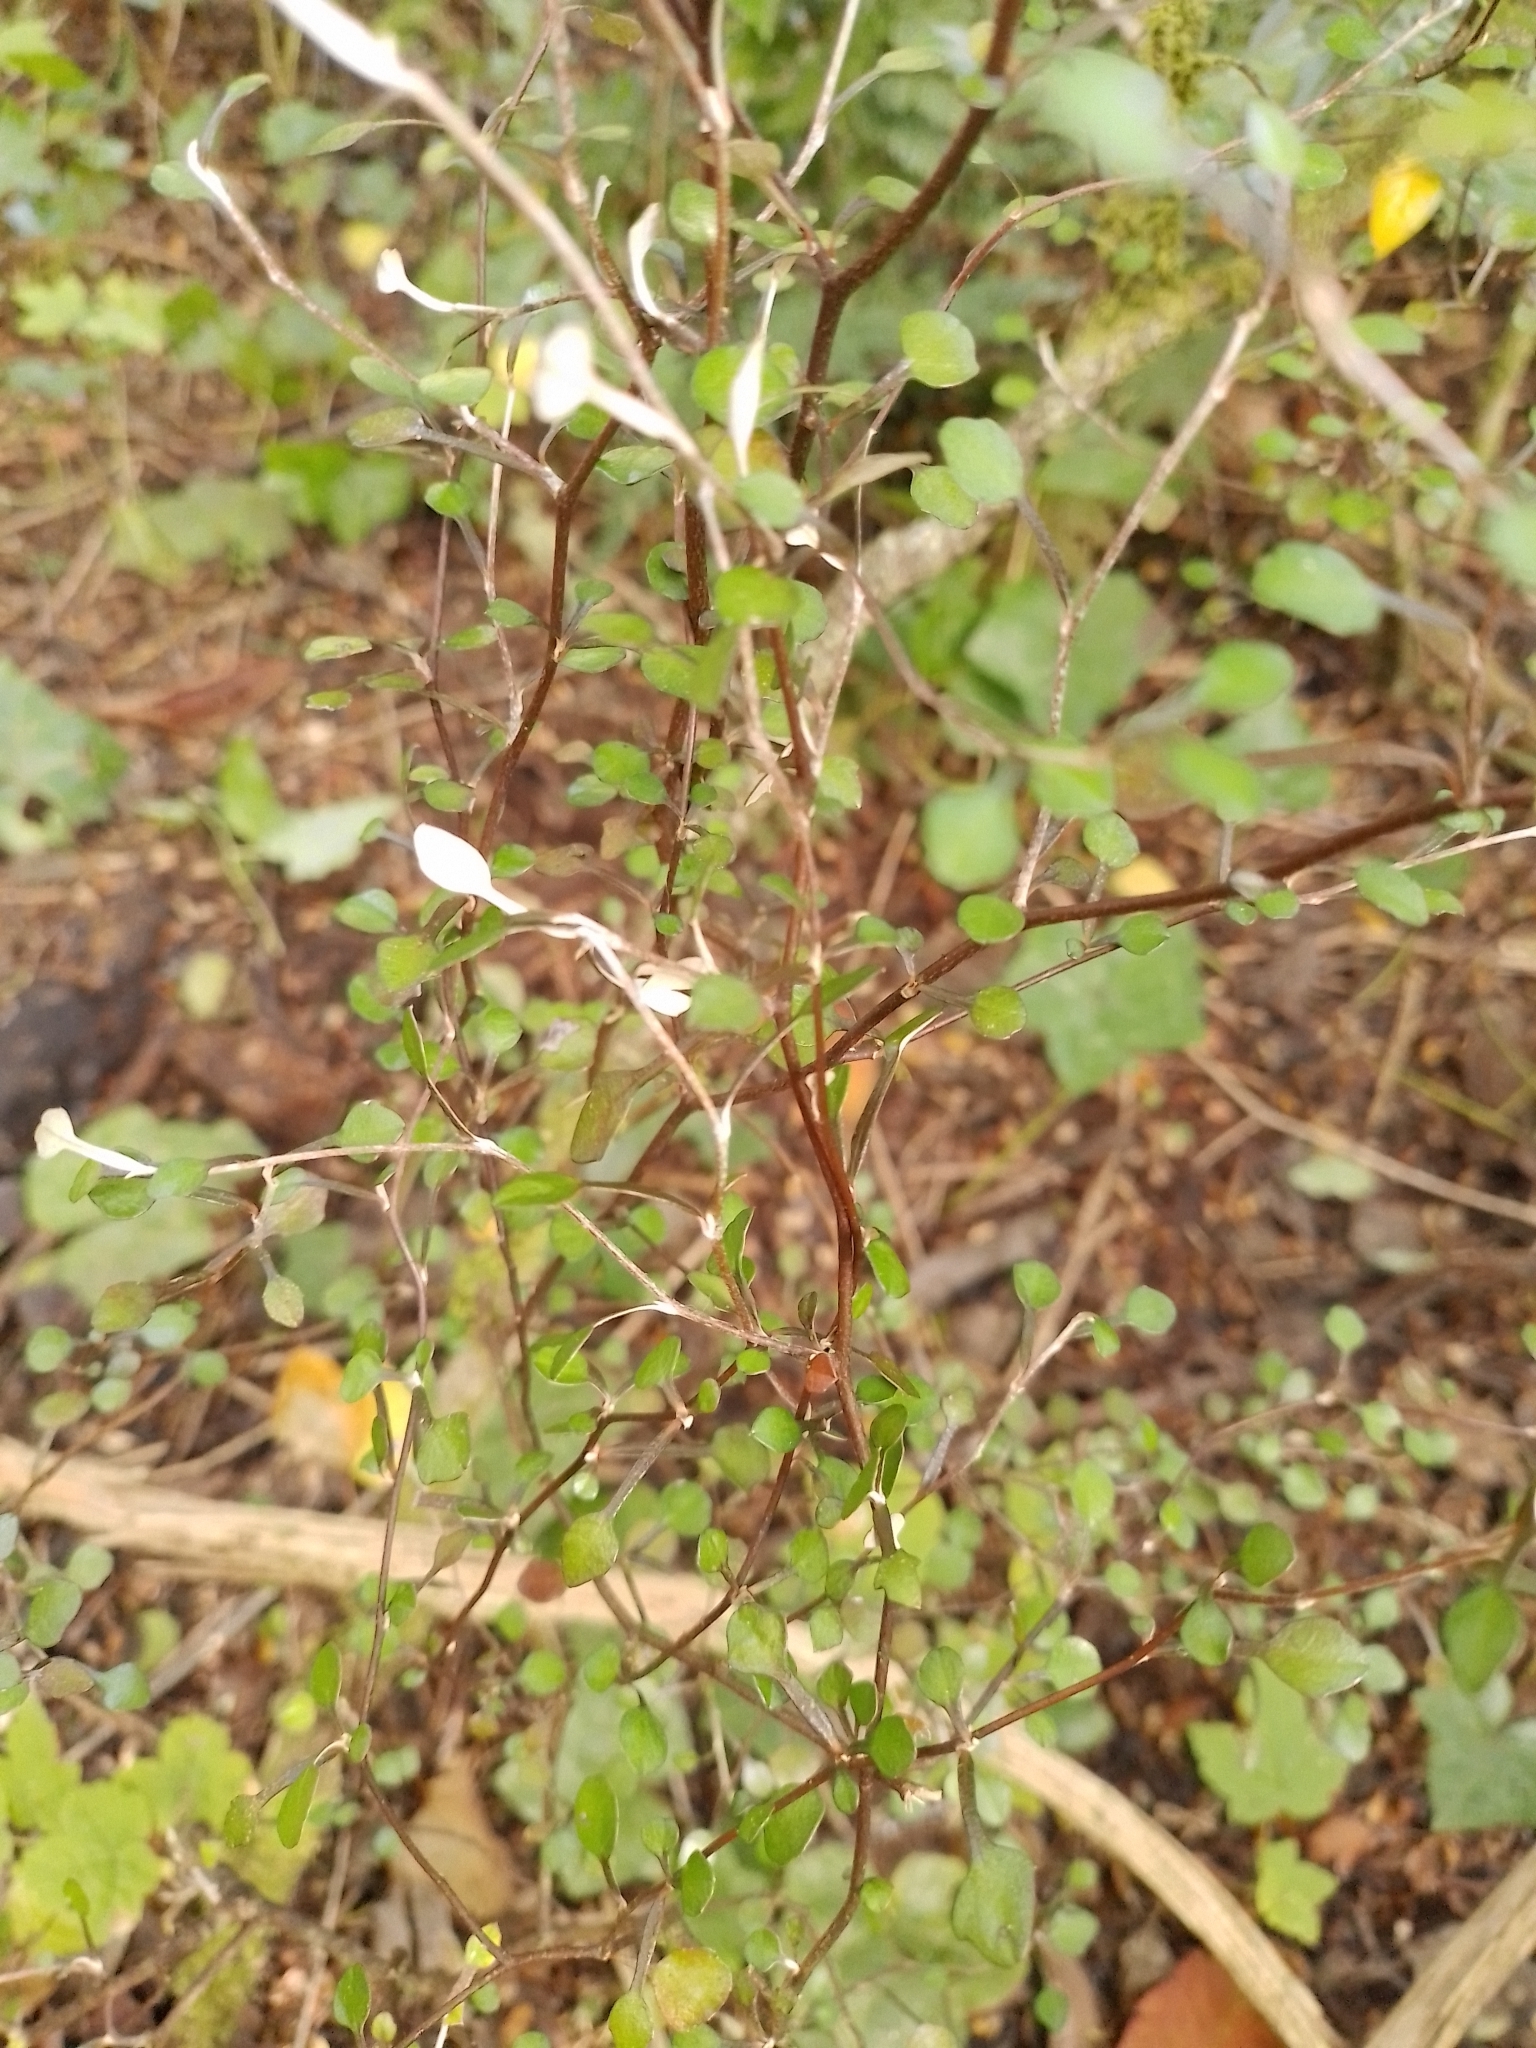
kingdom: Plantae
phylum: Tracheophyta
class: Magnoliopsida
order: Asterales
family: Argophyllaceae
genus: Corokia
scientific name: Corokia cotoneaster
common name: Wire nettingbush
